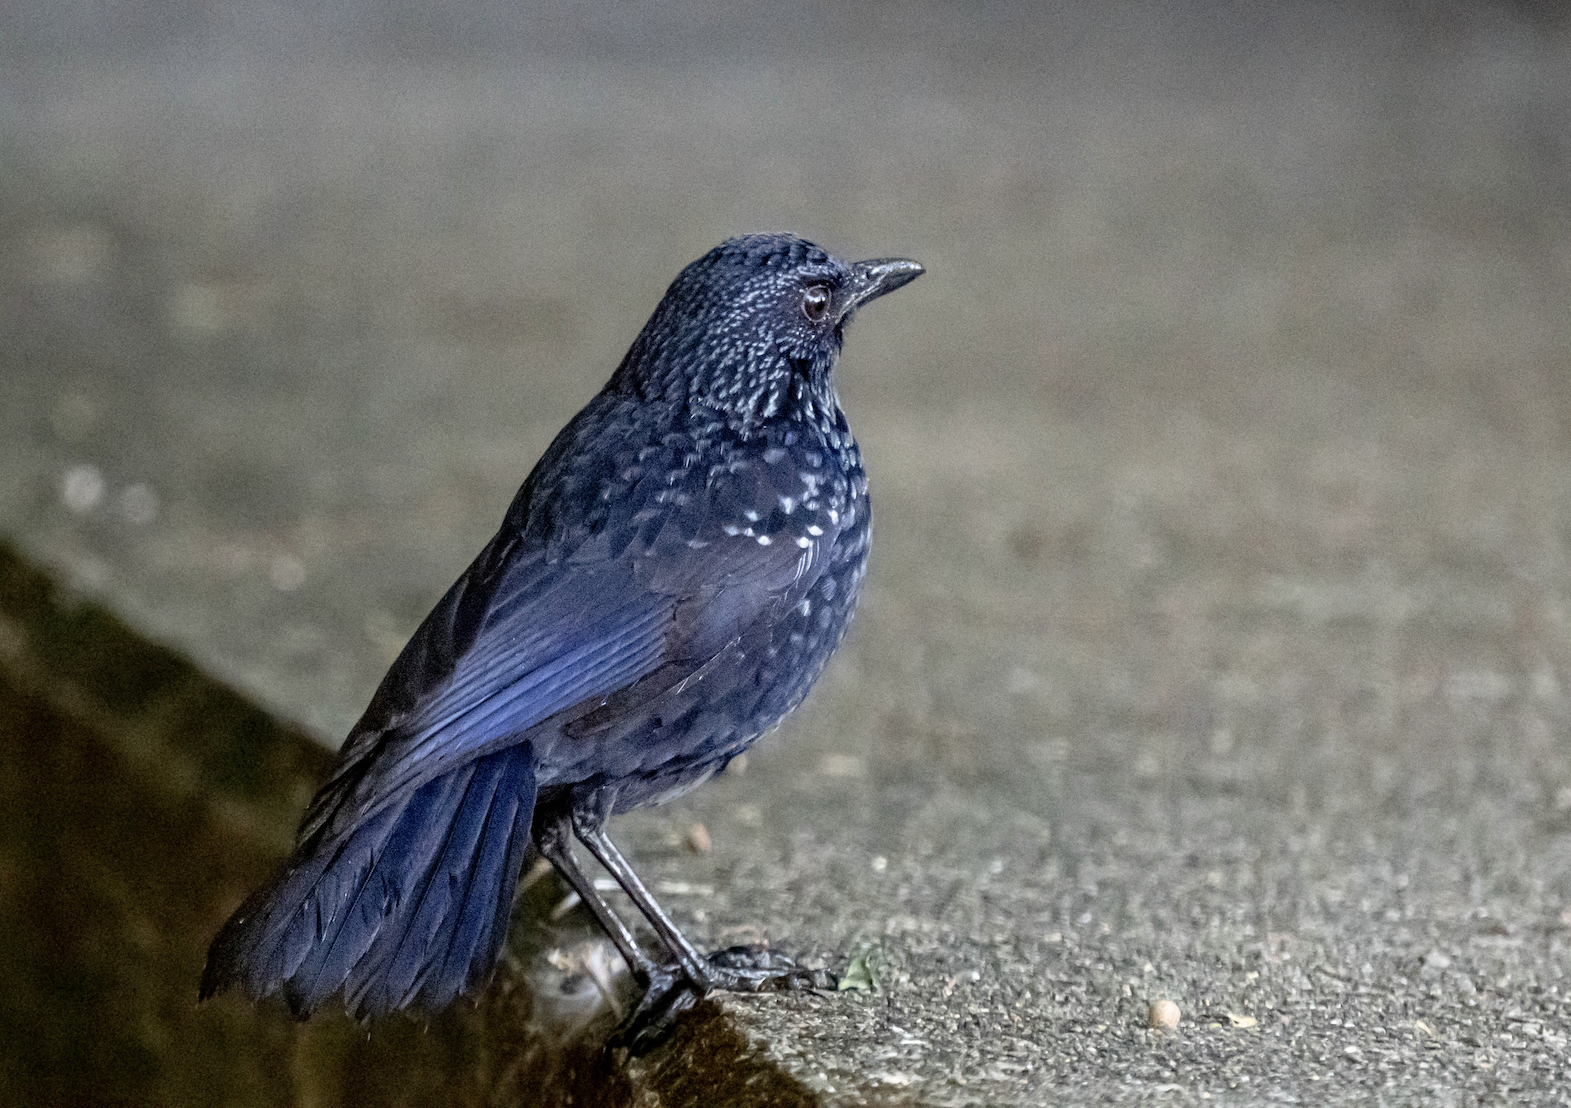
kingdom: Animalia
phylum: Chordata
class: Aves
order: Passeriformes
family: Muscicapidae
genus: Myophonus
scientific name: Myophonus caeruleus
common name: Blue whistling-thrush
